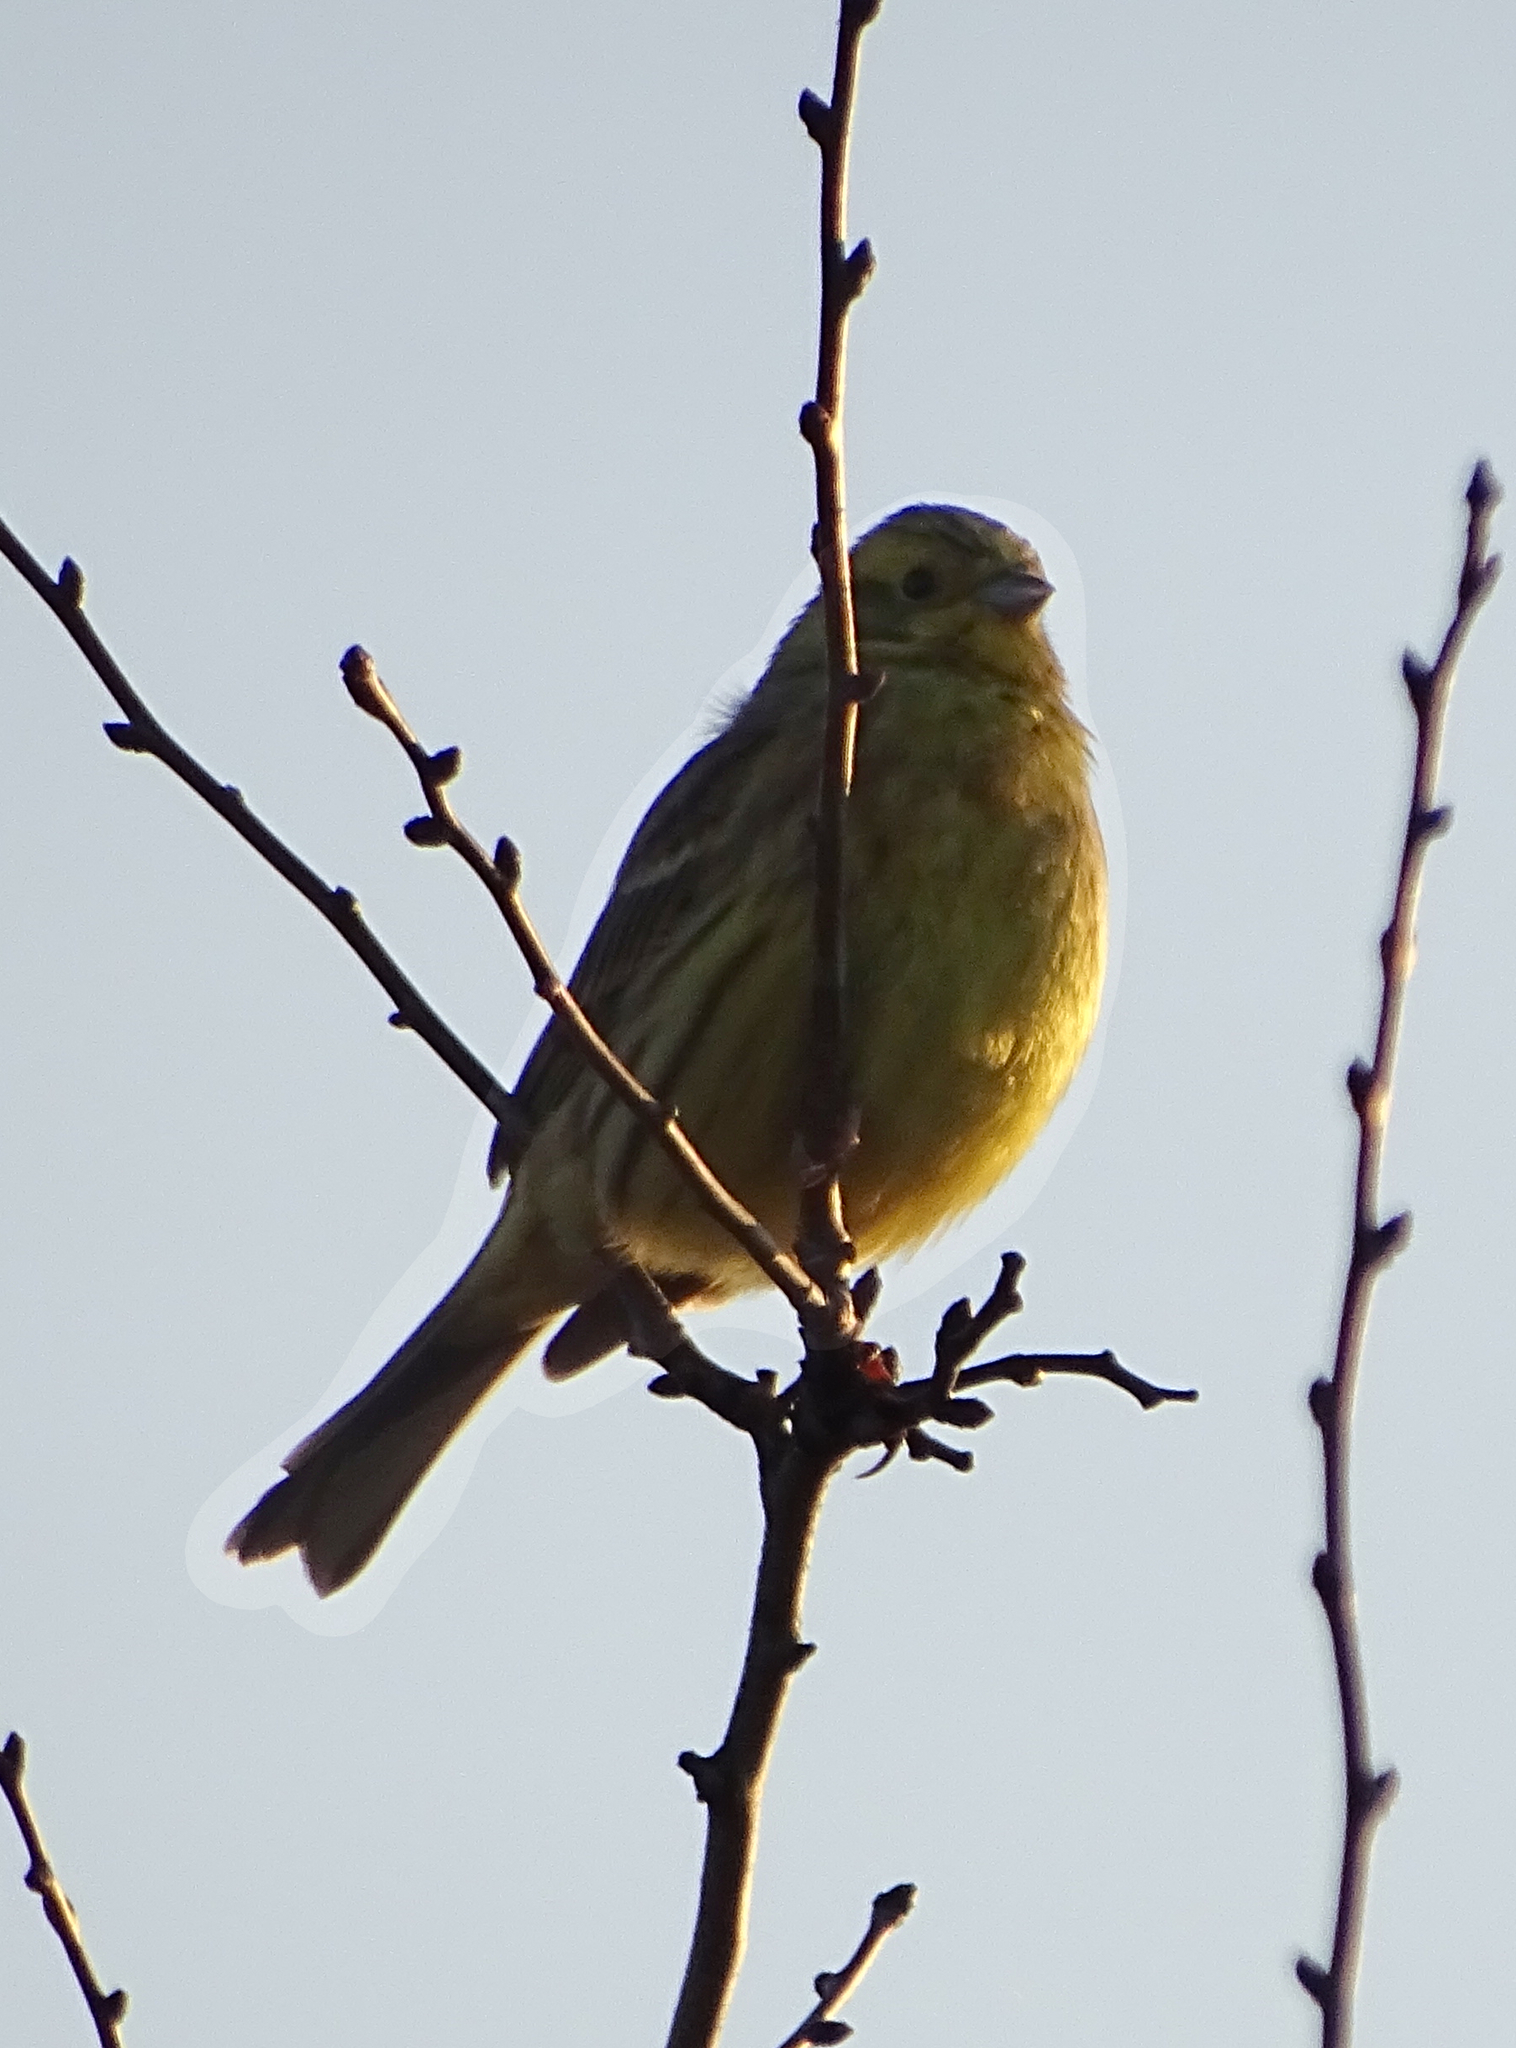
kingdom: Animalia
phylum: Chordata
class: Aves
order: Passeriformes
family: Emberizidae
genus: Emberiza
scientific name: Emberiza citrinella
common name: Yellowhammer
